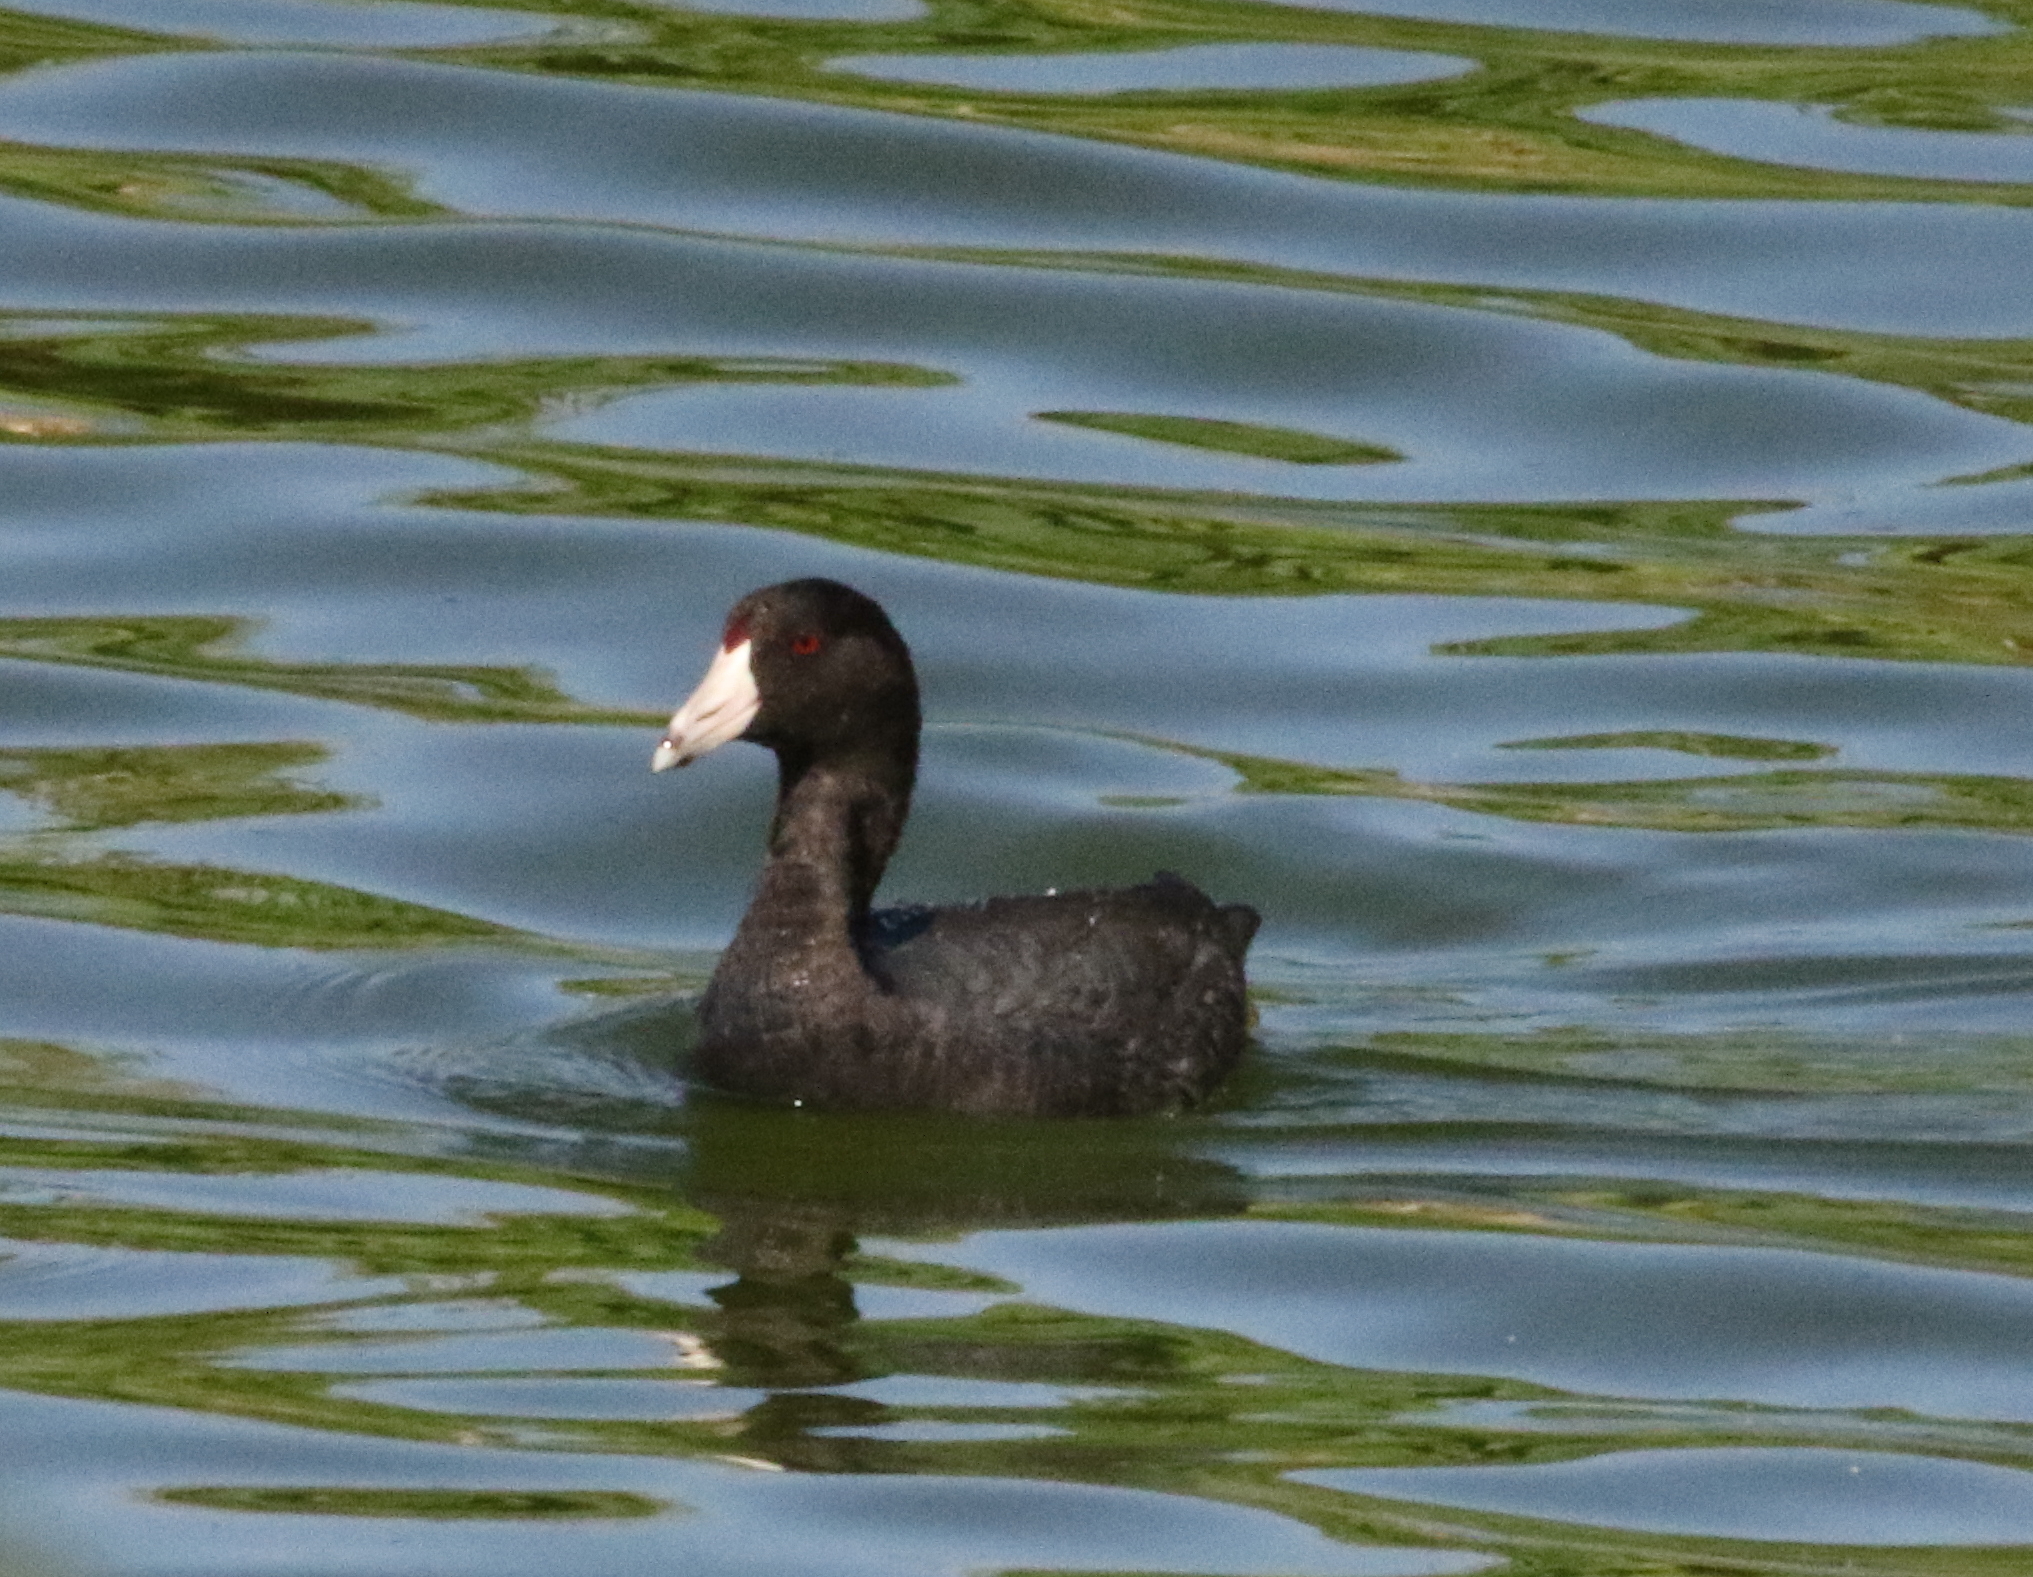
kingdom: Animalia
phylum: Chordata
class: Aves
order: Gruiformes
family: Rallidae
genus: Fulica
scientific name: Fulica americana
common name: American coot
